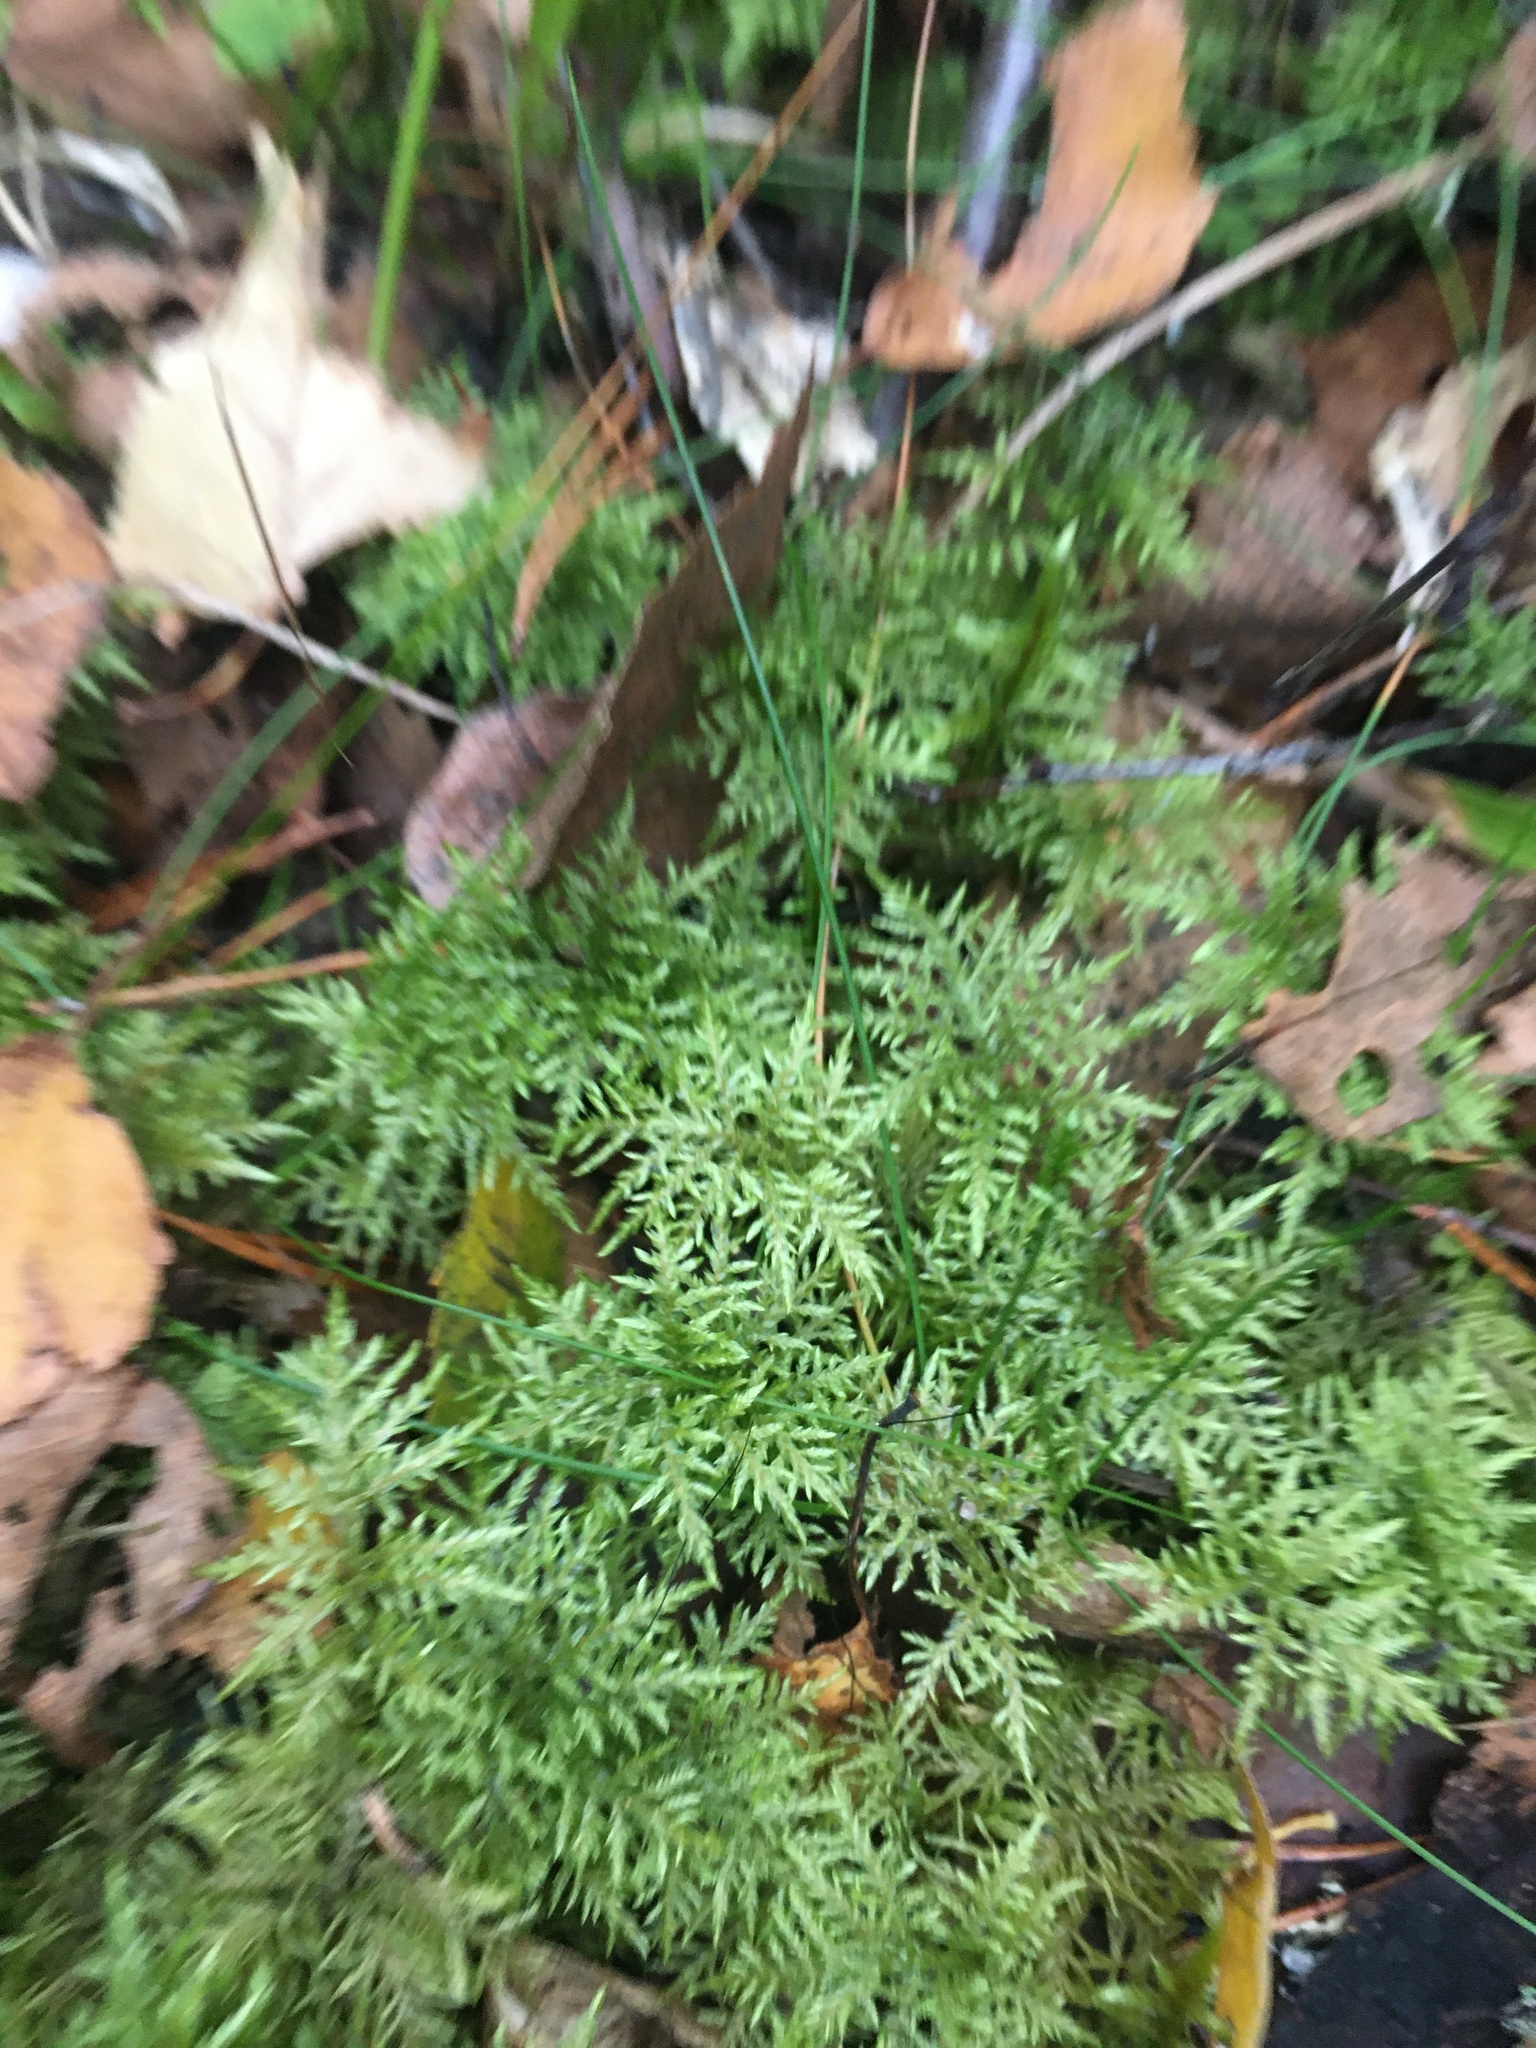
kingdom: Plantae
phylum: Bryophyta
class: Bryopsida
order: Hypnales
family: Hylocomiaceae
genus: Hylocomium
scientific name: Hylocomium splendens
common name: Stairstep moss
